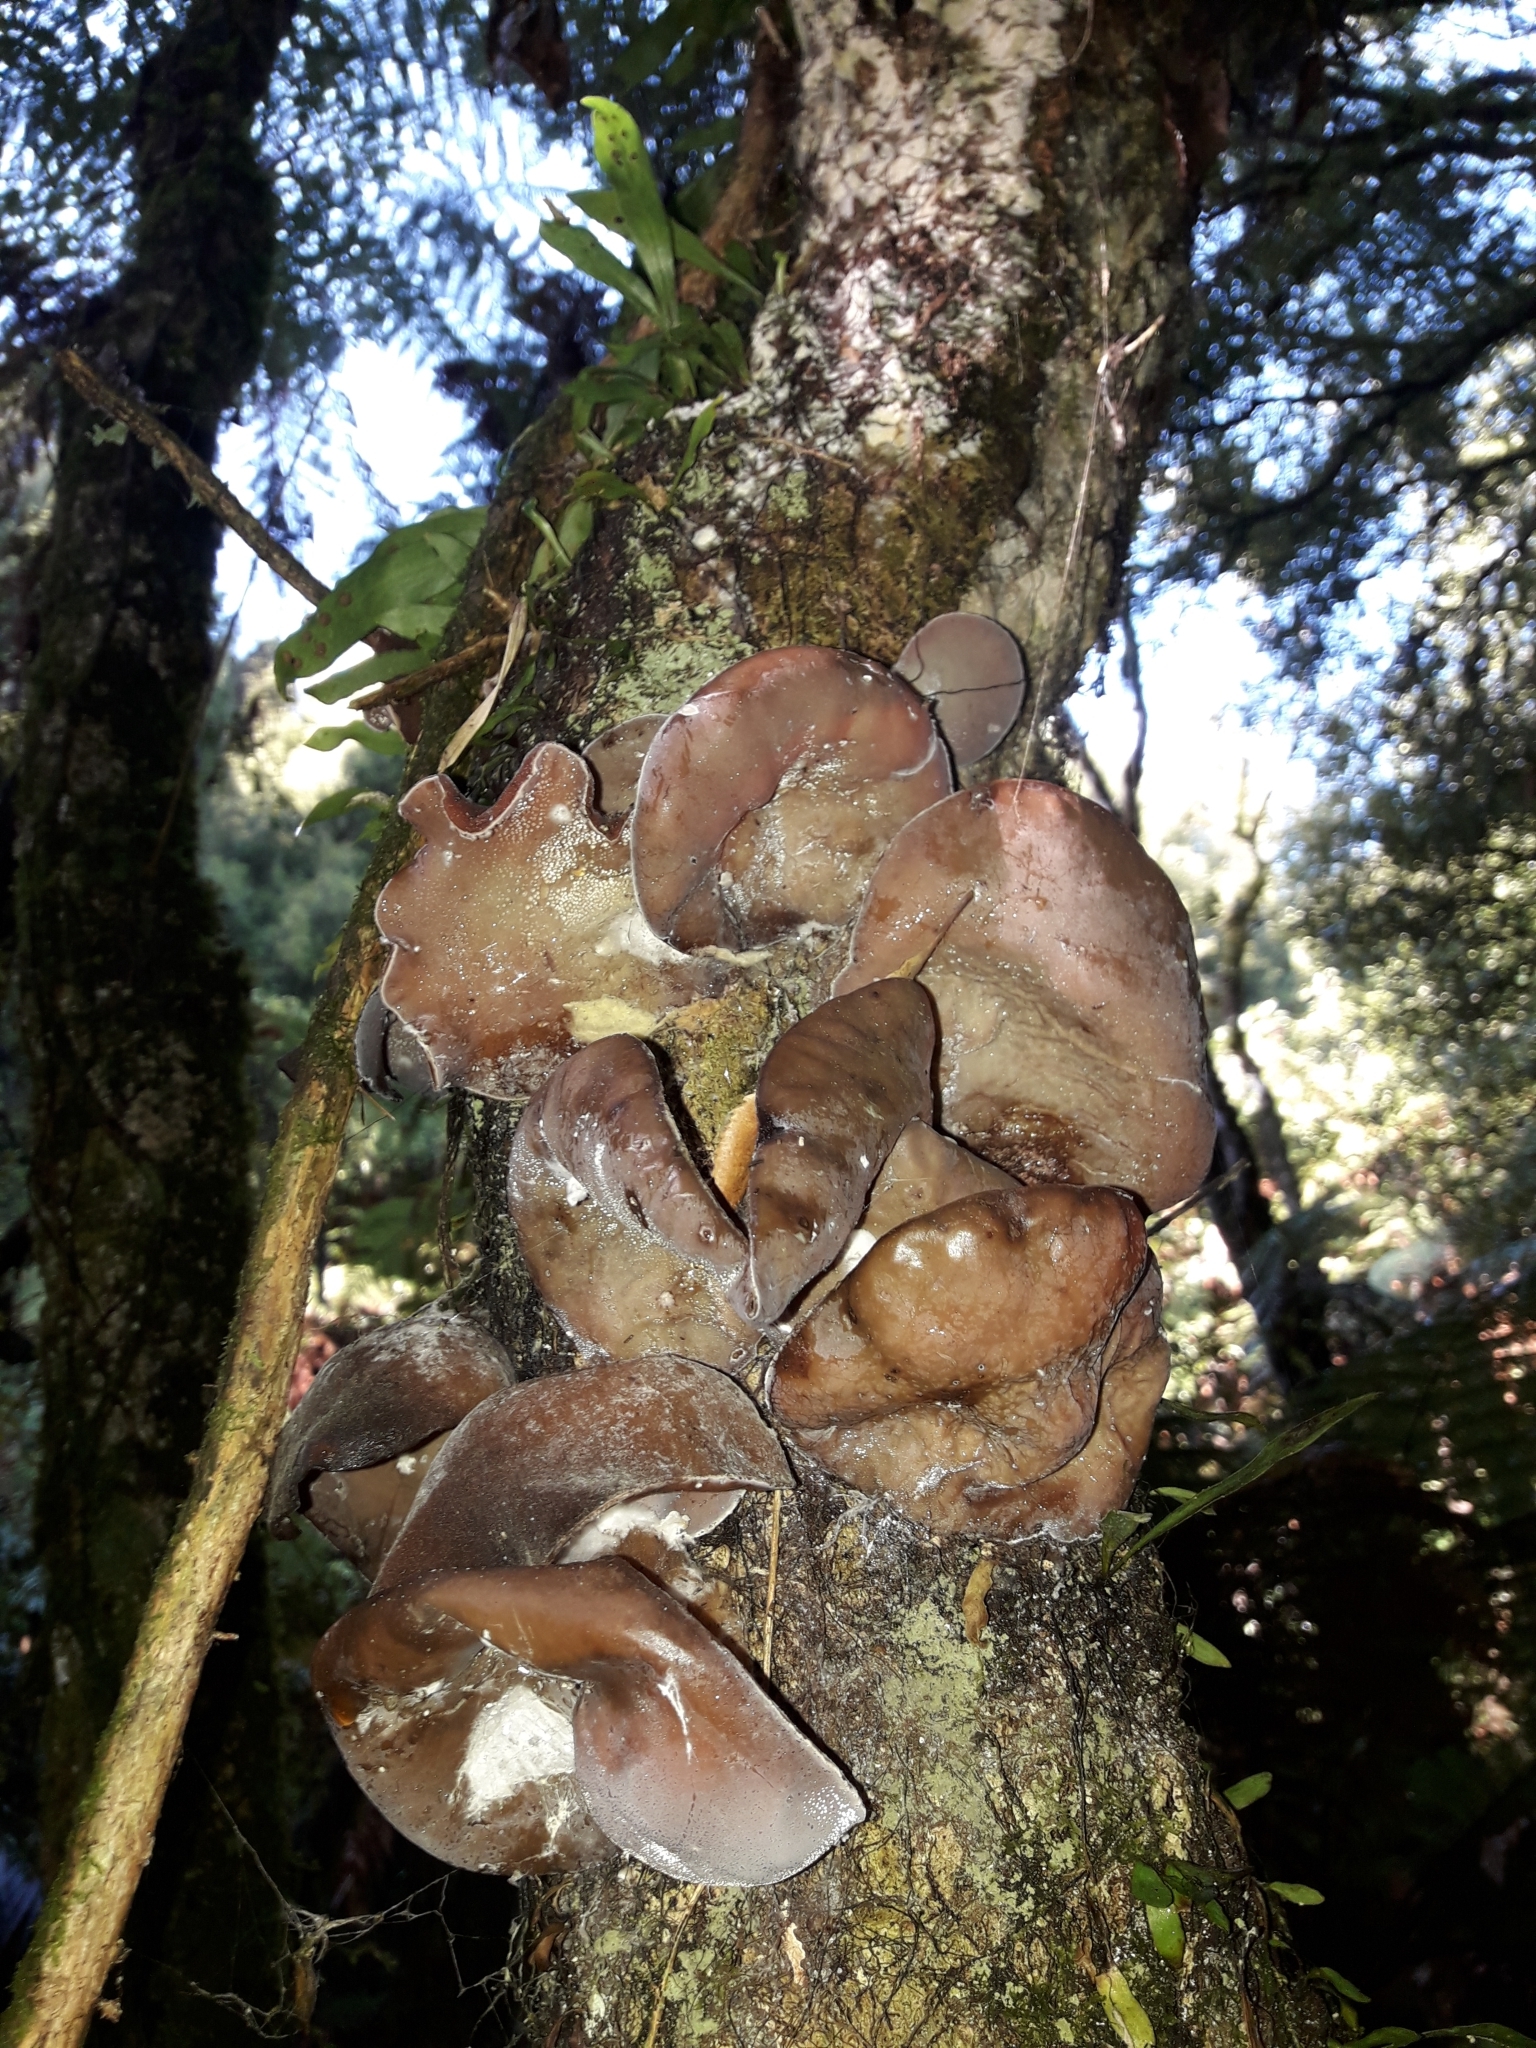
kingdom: Fungi
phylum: Basidiomycota
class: Agaricomycetes
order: Auriculariales
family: Auriculariaceae
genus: Auricularia
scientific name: Auricularia cornea
